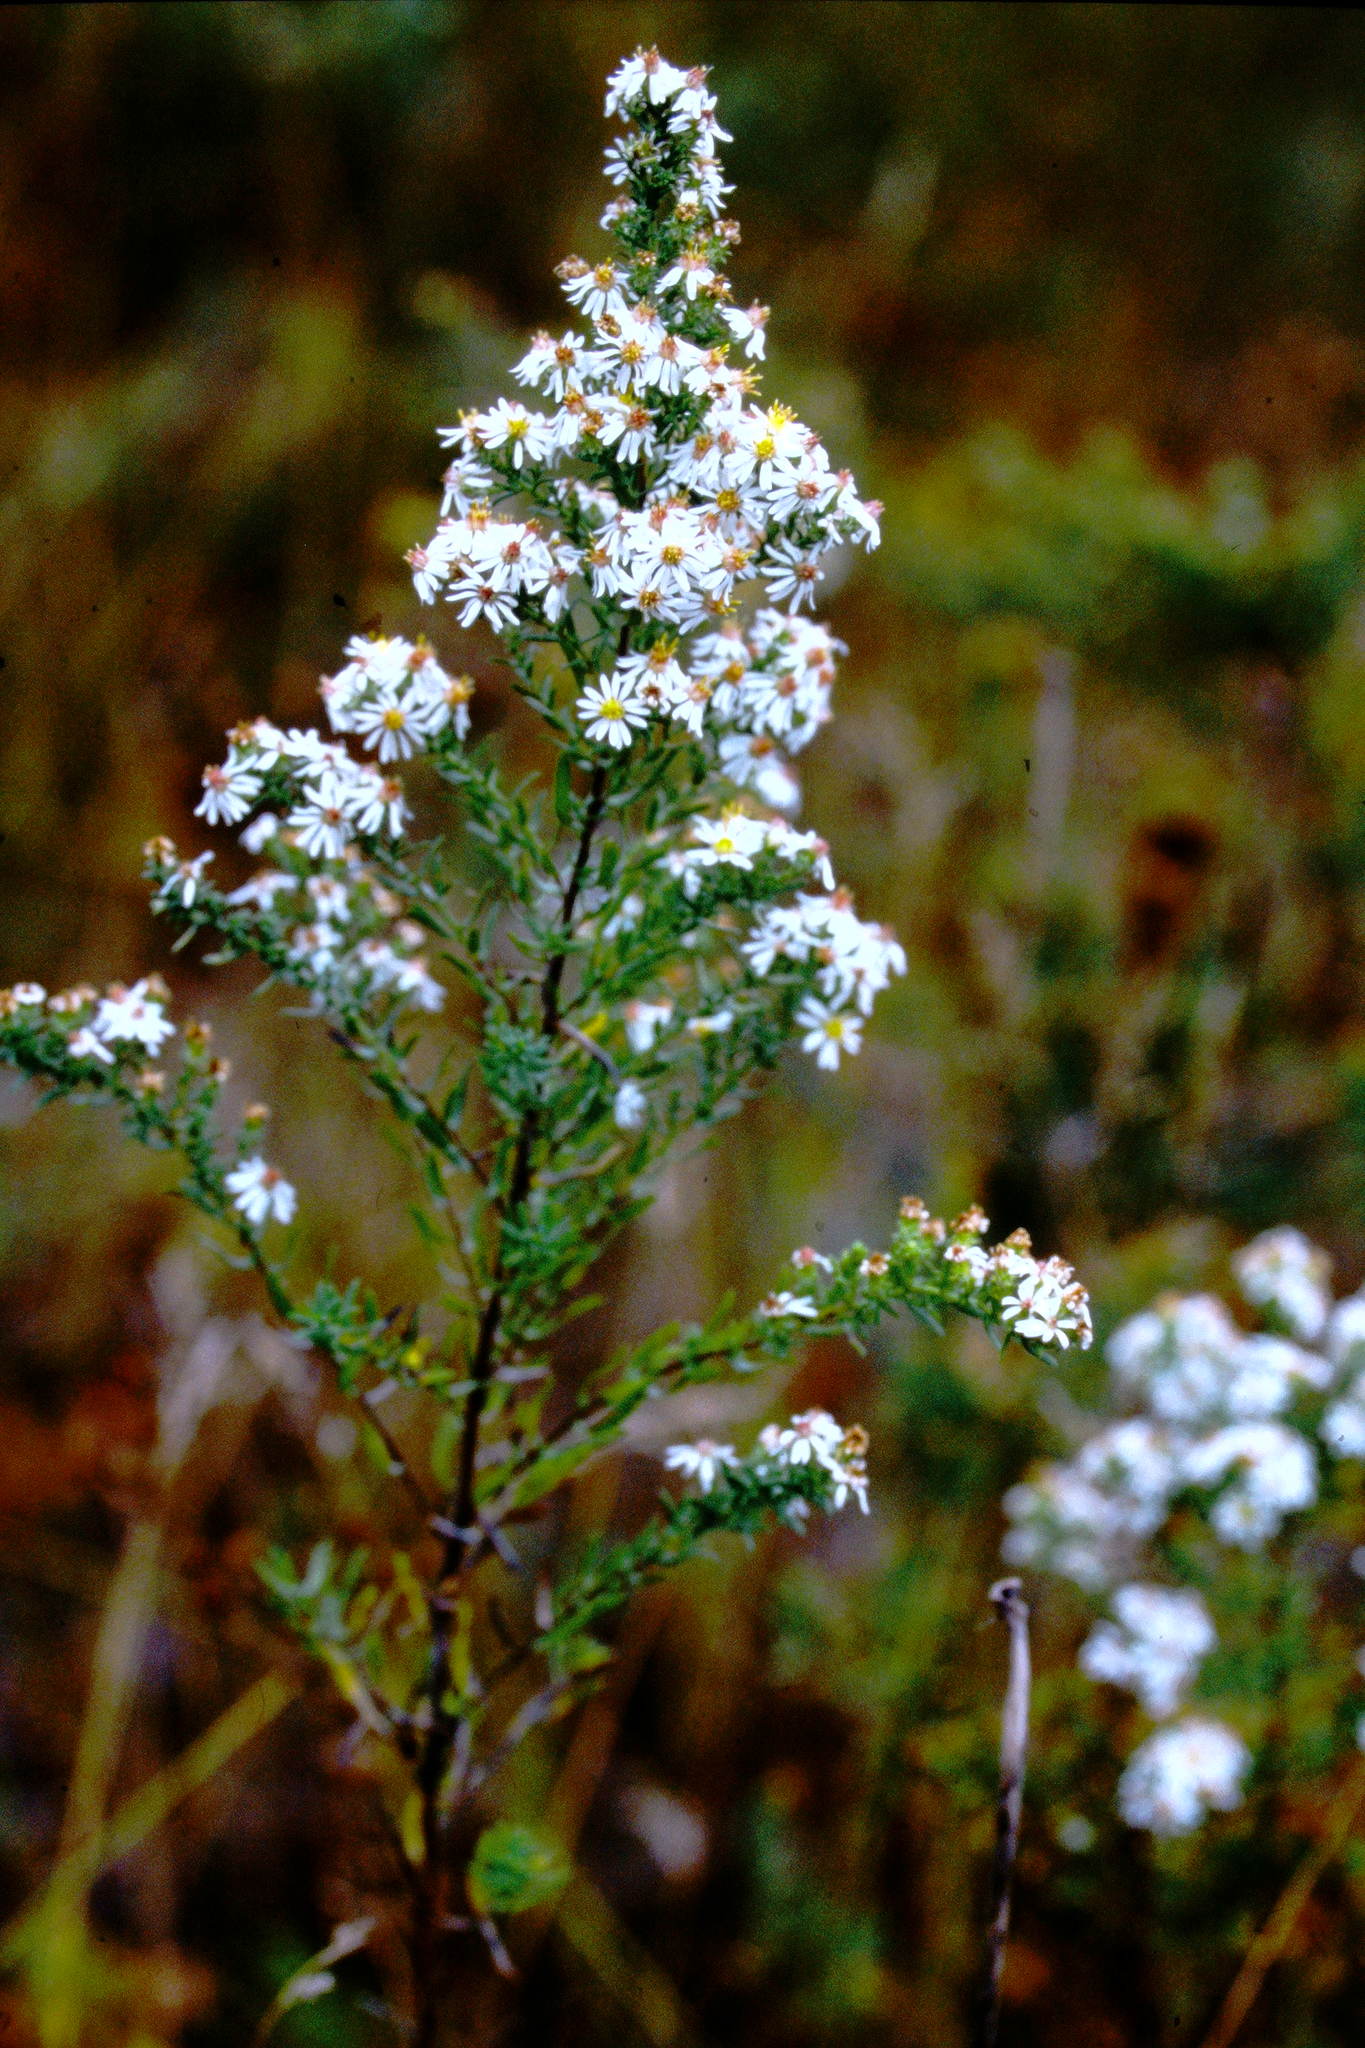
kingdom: Plantae
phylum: Tracheophyta
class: Magnoliopsida
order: Asterales
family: Asteraceae
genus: Symphyotrichum
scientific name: Symphyotrichum ericoides
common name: Heath aster
